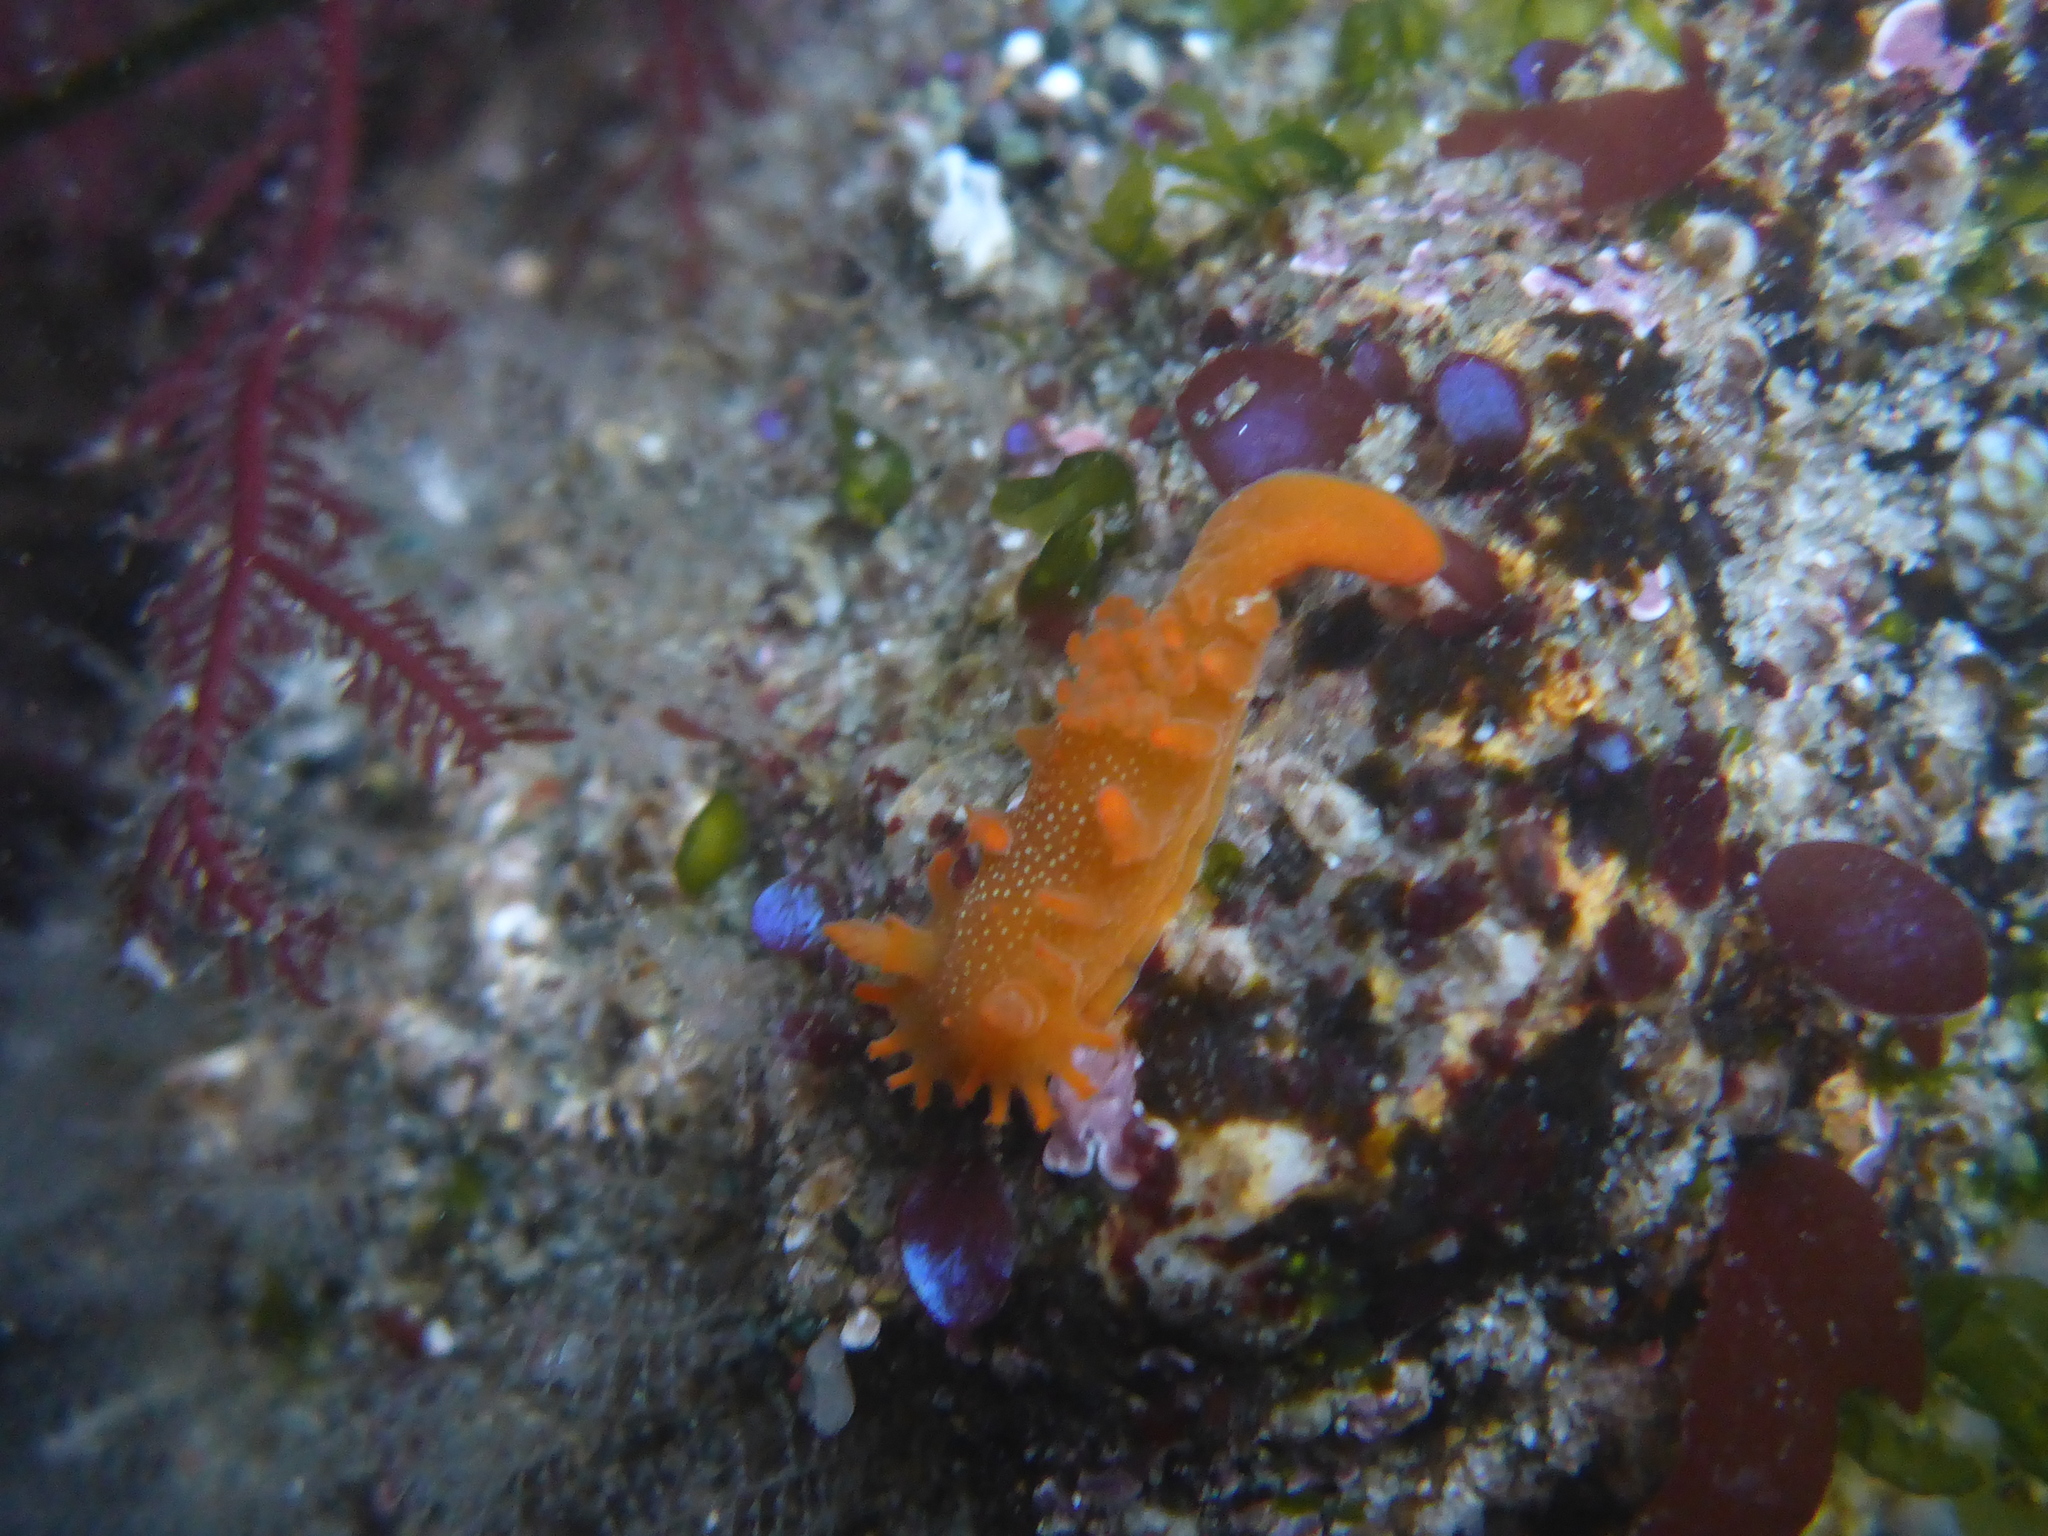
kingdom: Animalia
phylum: Mollusca
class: Gastropoda
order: Nudibranchia
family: Polyceridae
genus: Triopha
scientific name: Triopha maculata
